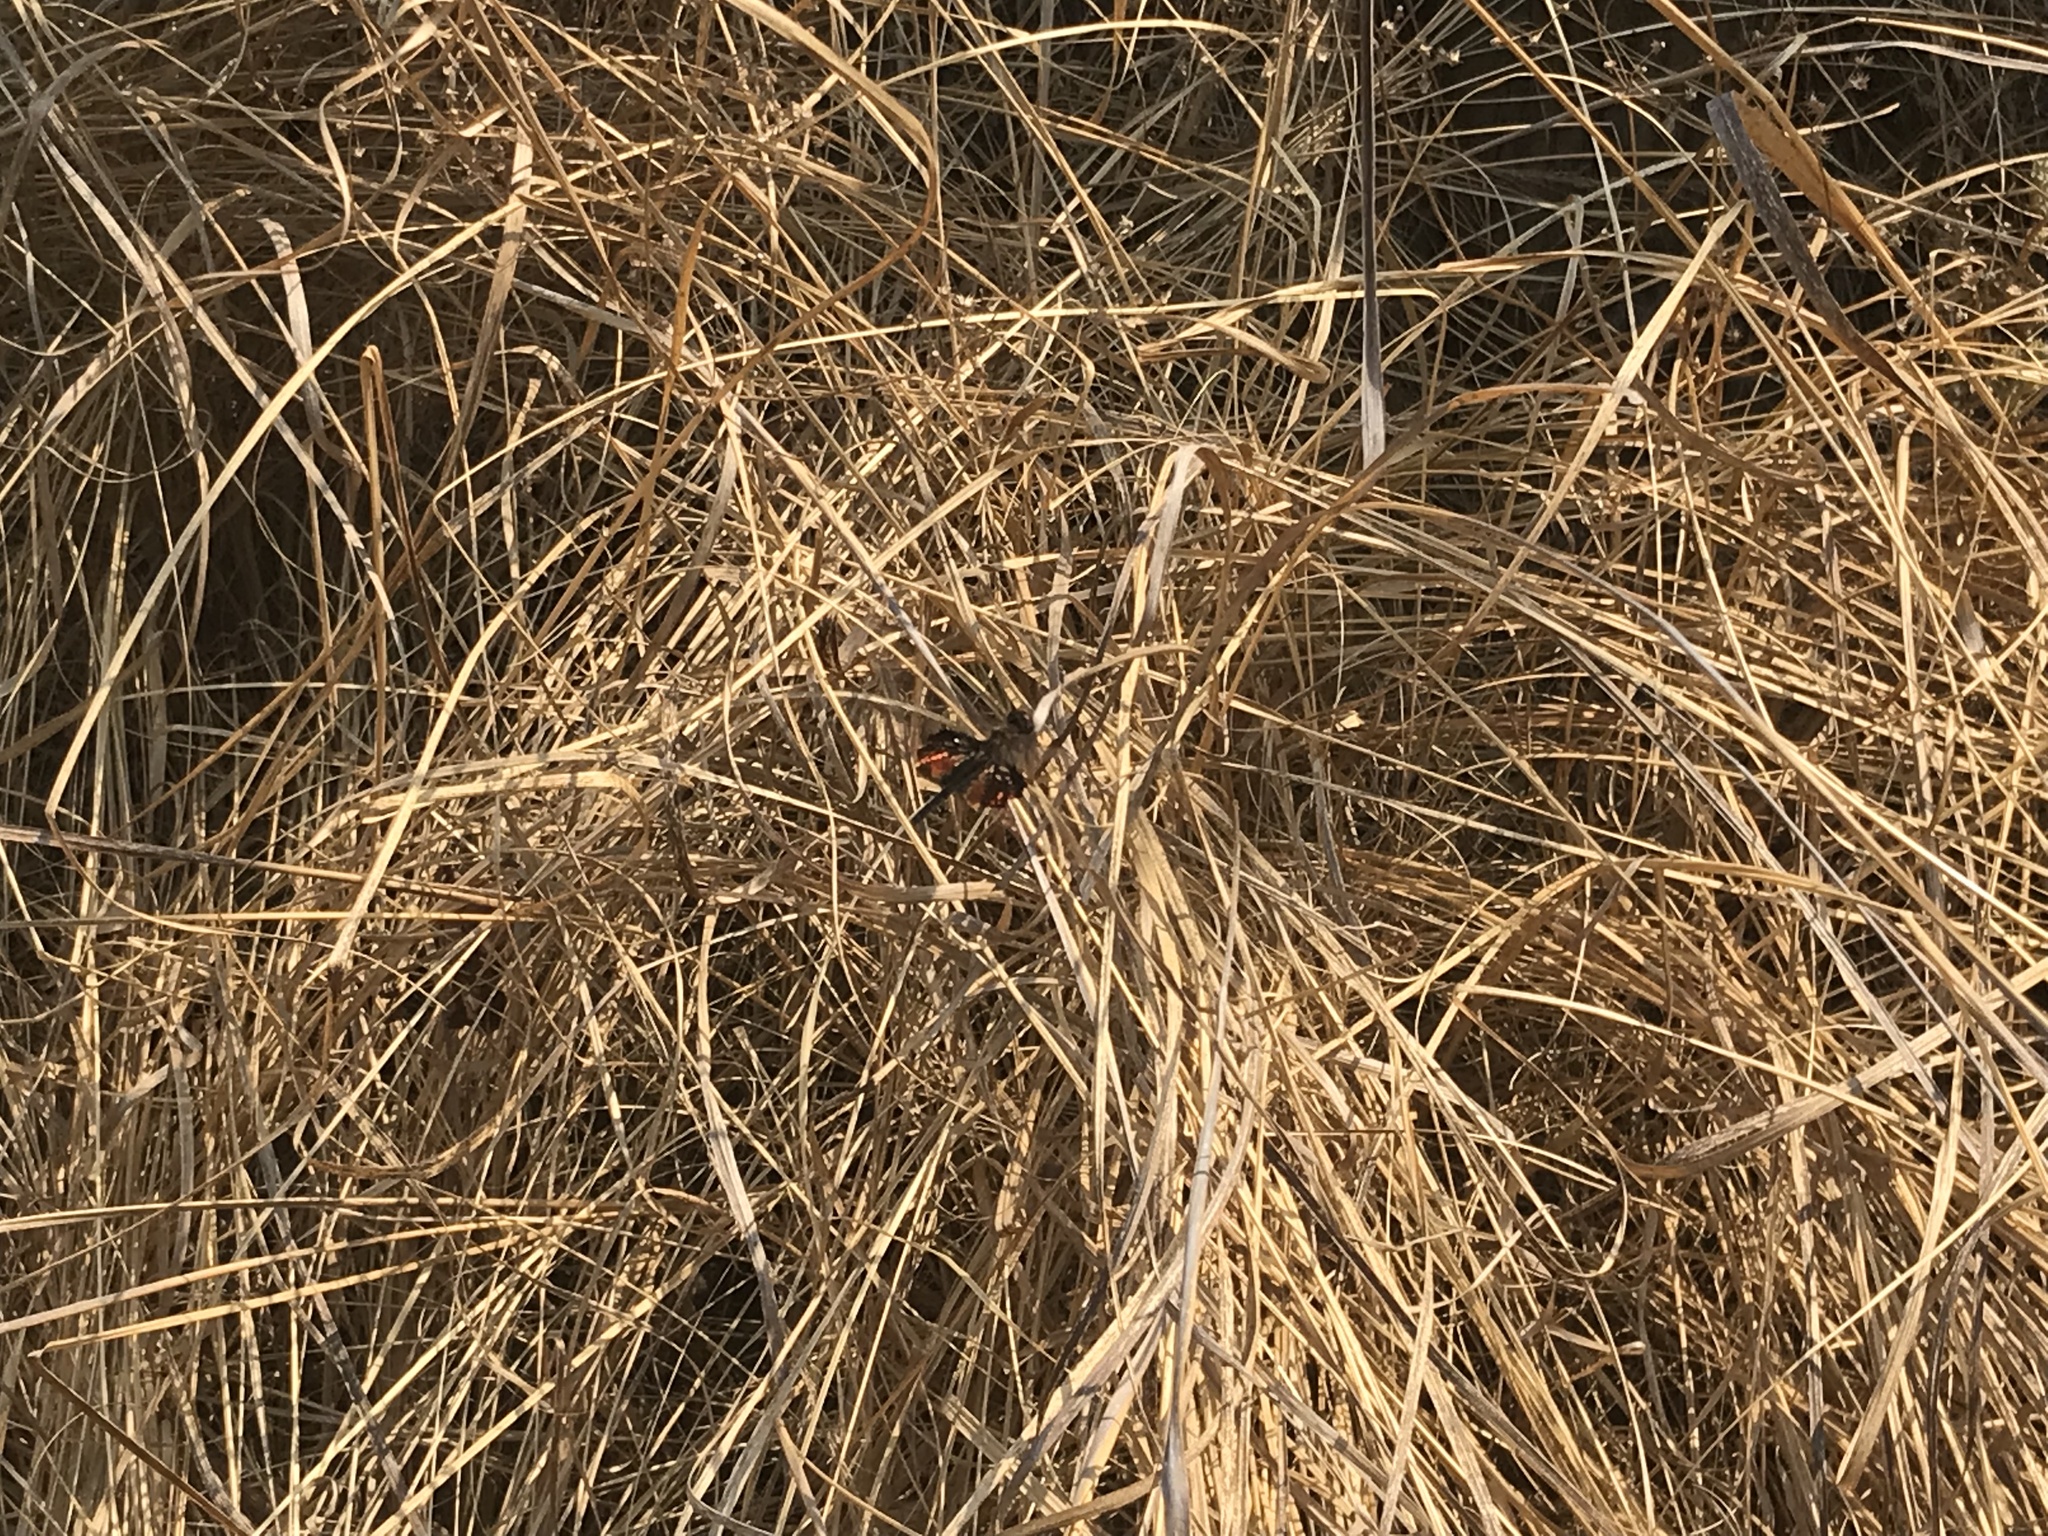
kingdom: Animalia
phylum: Arthropoda
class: Insecta
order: Odonata
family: Libellulidae
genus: Rhyothemis
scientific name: Rhyothemis semihyalina
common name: Phantom flutterer
